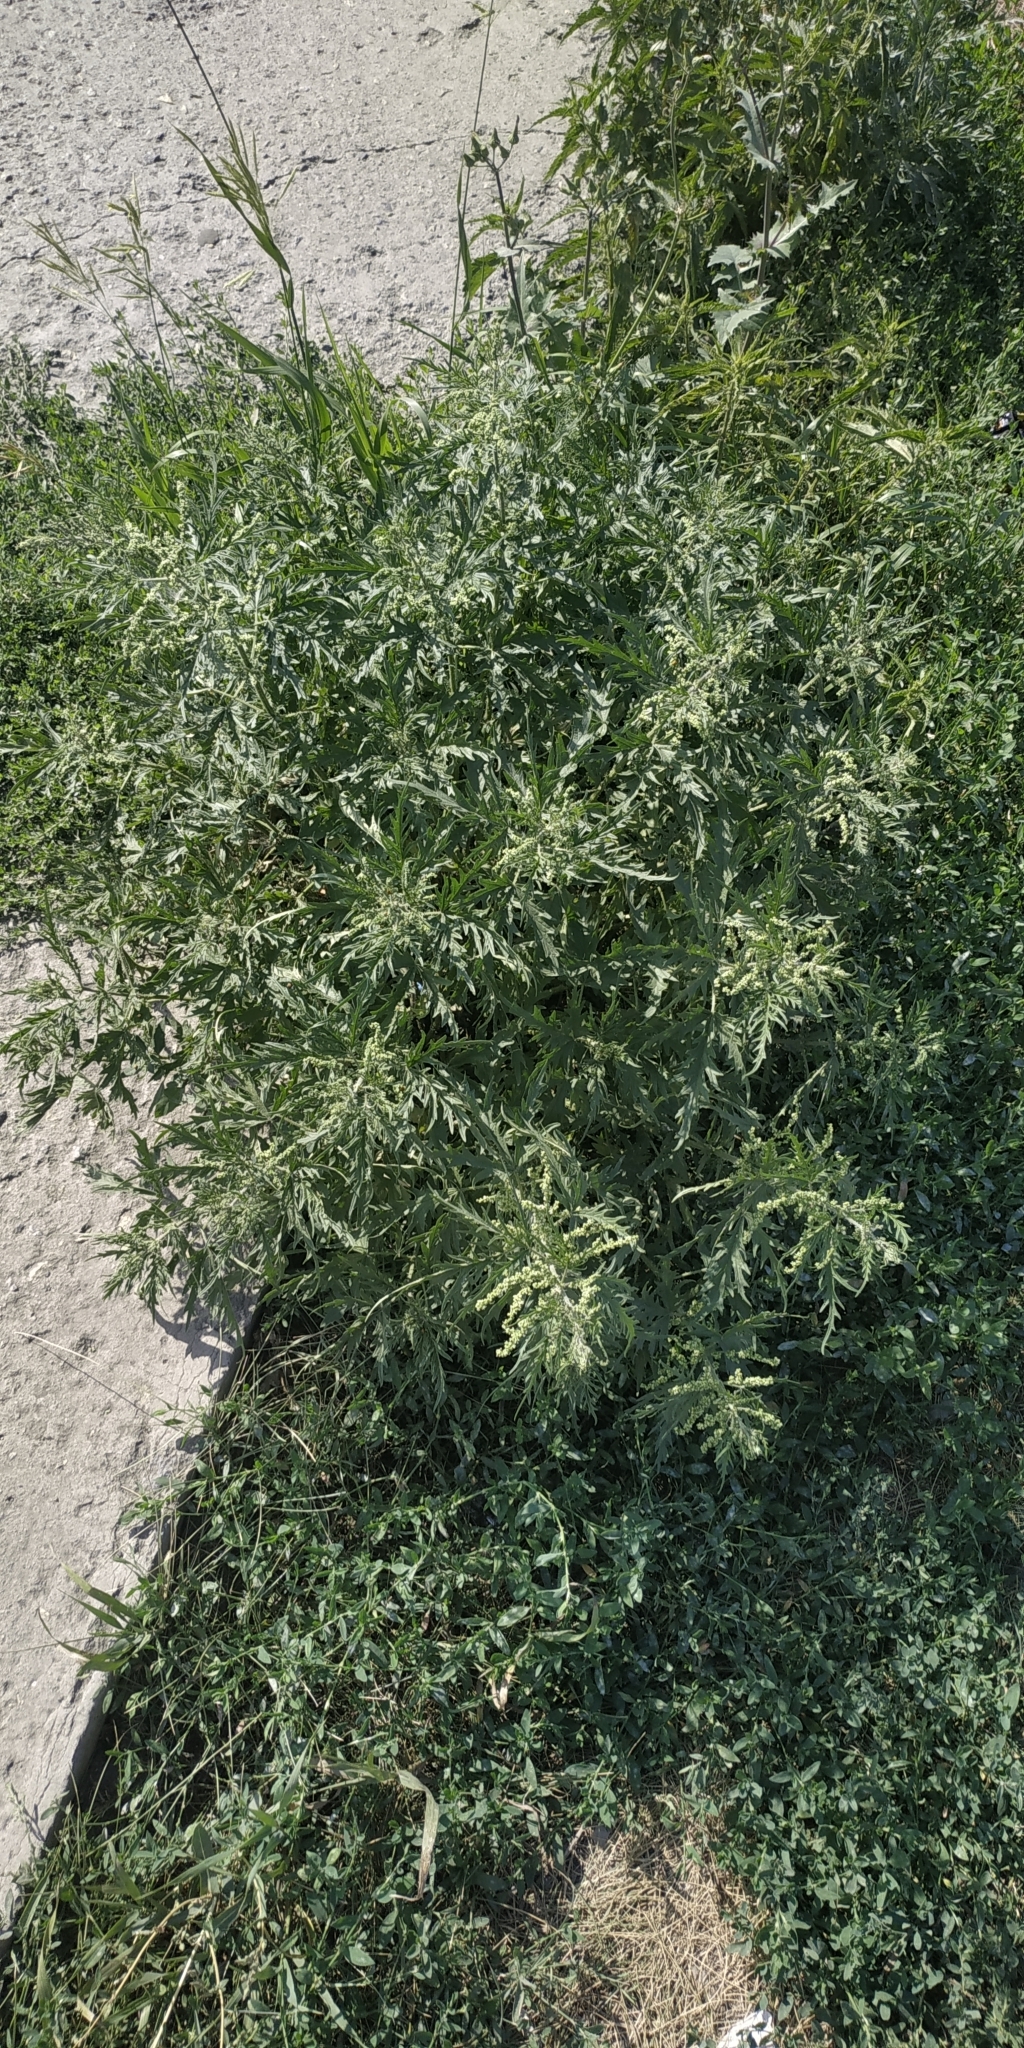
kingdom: Plantae
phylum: Tracheophyta
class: Magnoliopsida
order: Rosales
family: Urticaceae
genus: Urtica
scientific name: Urtica cannabina
